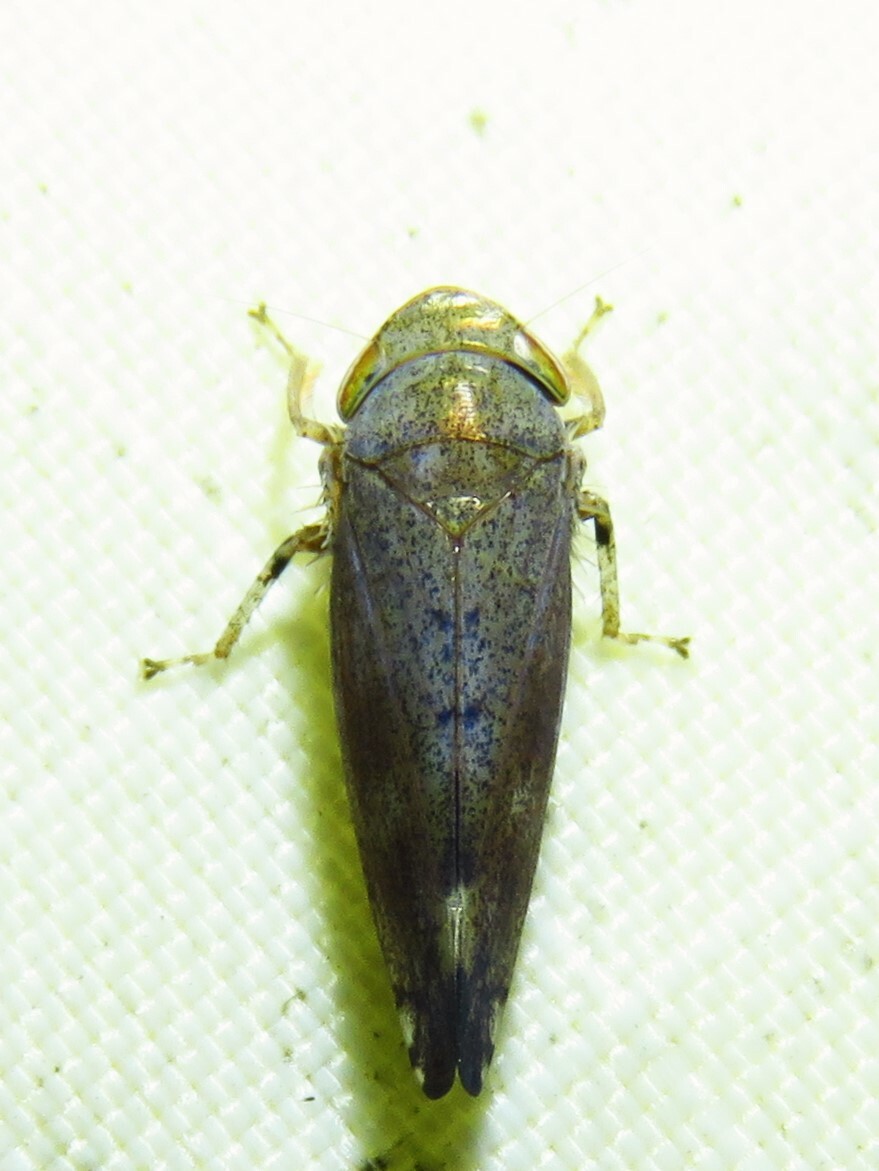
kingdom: Animalia
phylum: Arthropoda
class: Insecta
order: Hemiptera
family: Cicadellidae
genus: Fieberiella
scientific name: Fieberiella florii
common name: Flor’s leafhopper
